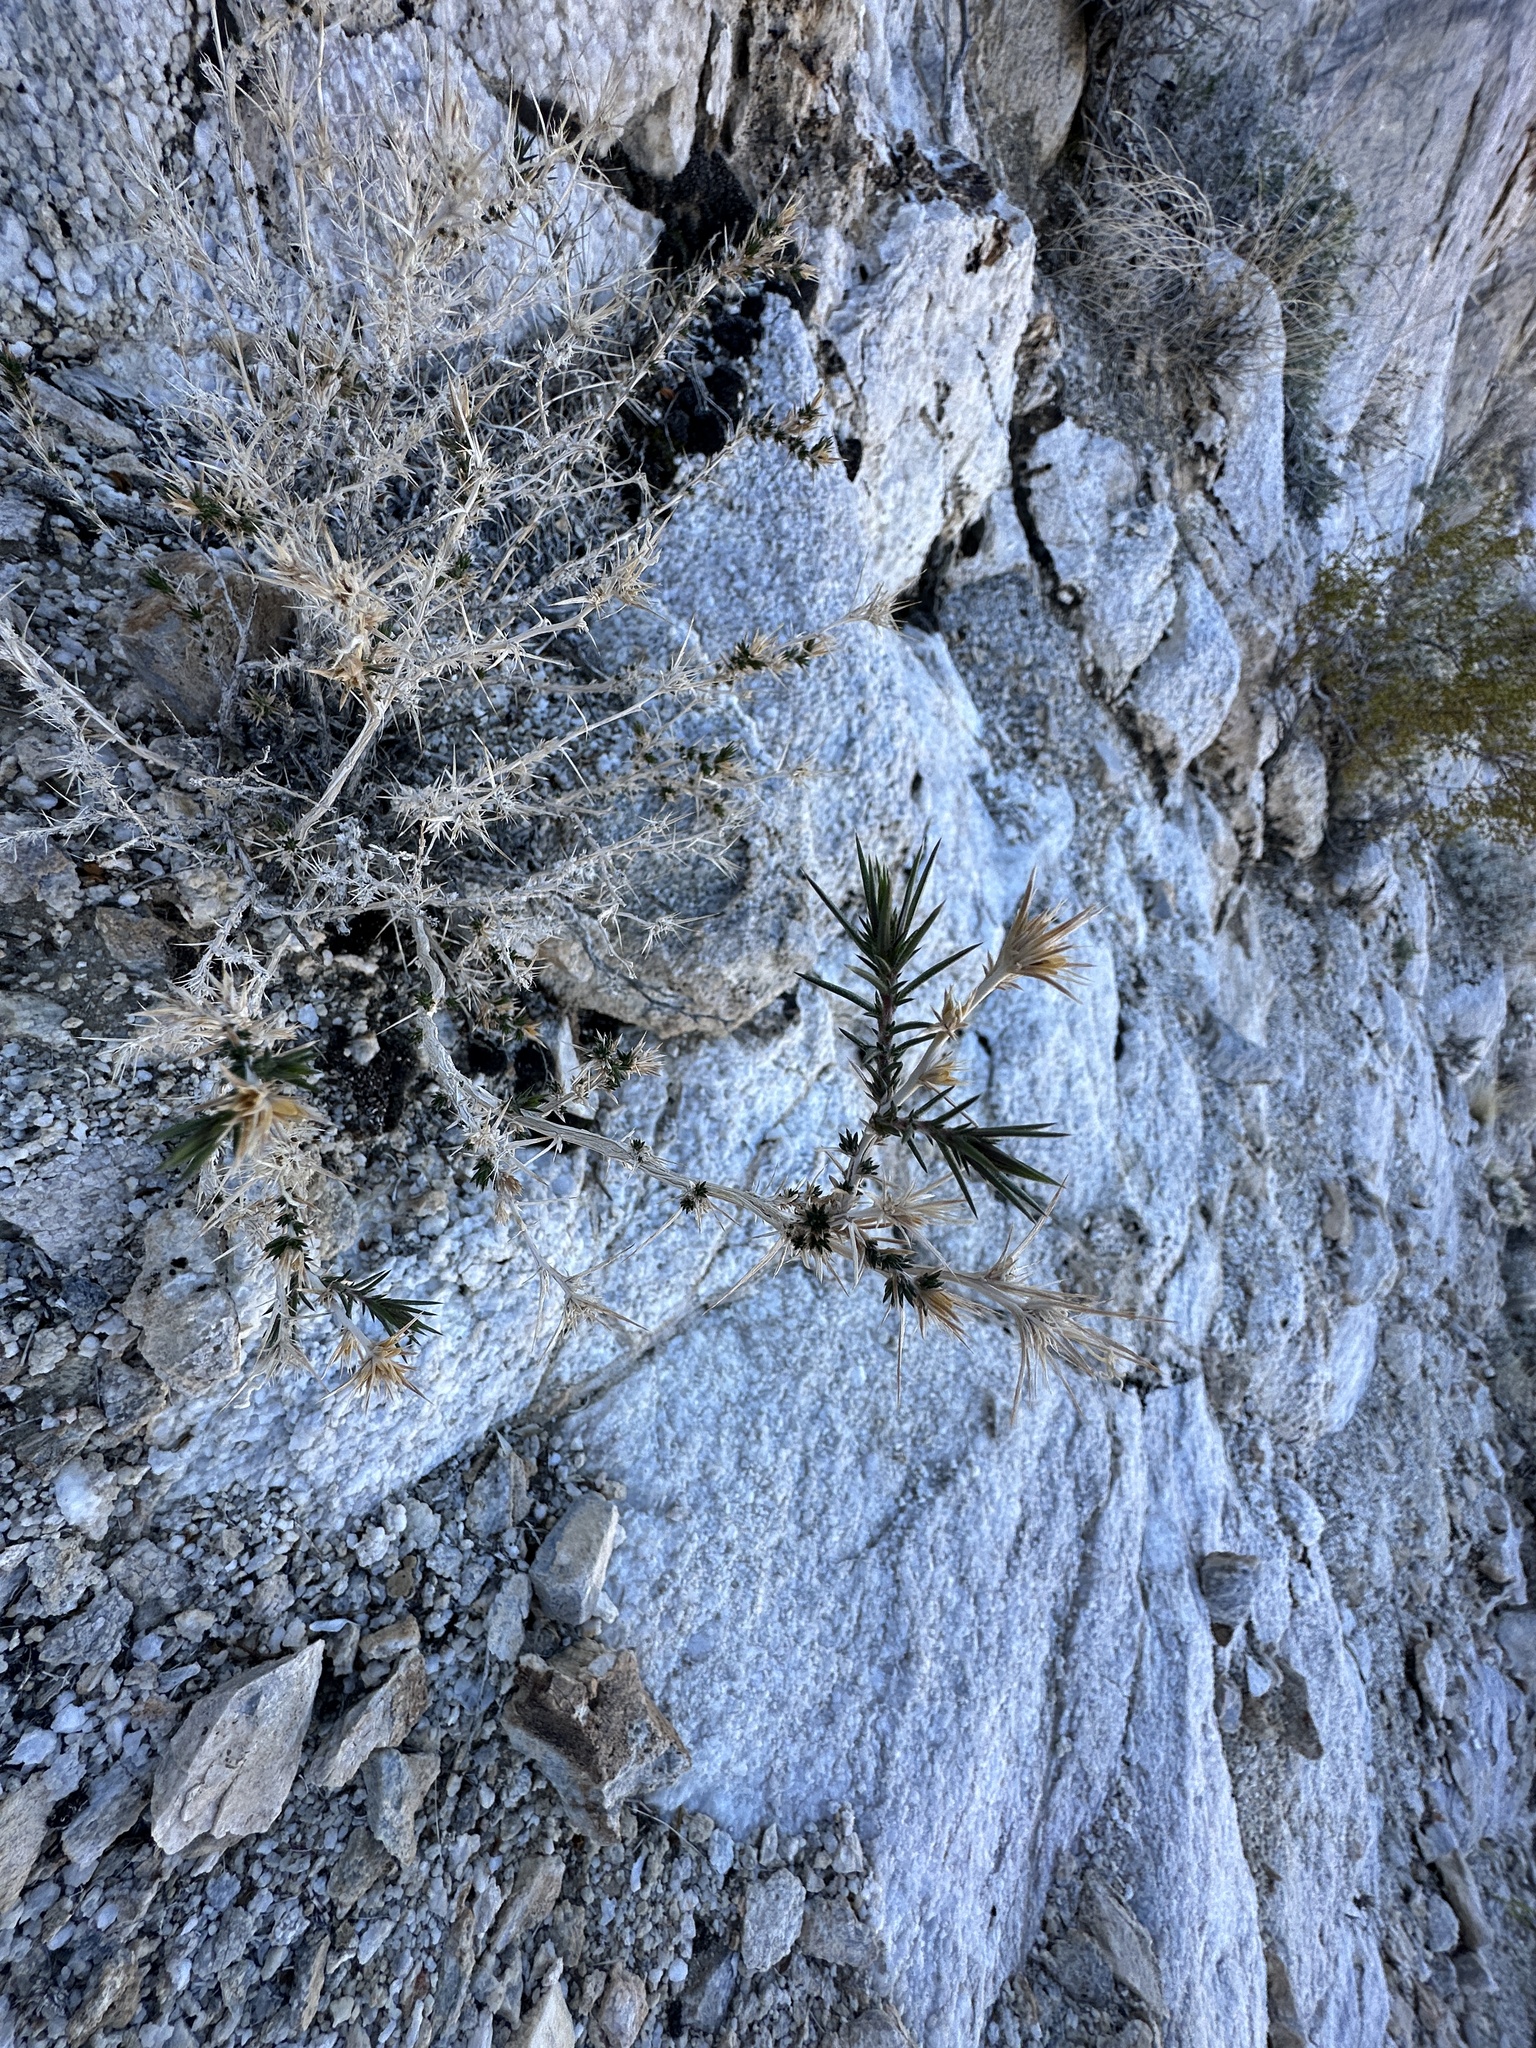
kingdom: Plantae
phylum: Tracheophyta
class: Magnoliopsida
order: Ericales
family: Polemoniaceae
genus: Linanthus
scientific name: Linanthus pungens
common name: Granite prickly phlox
